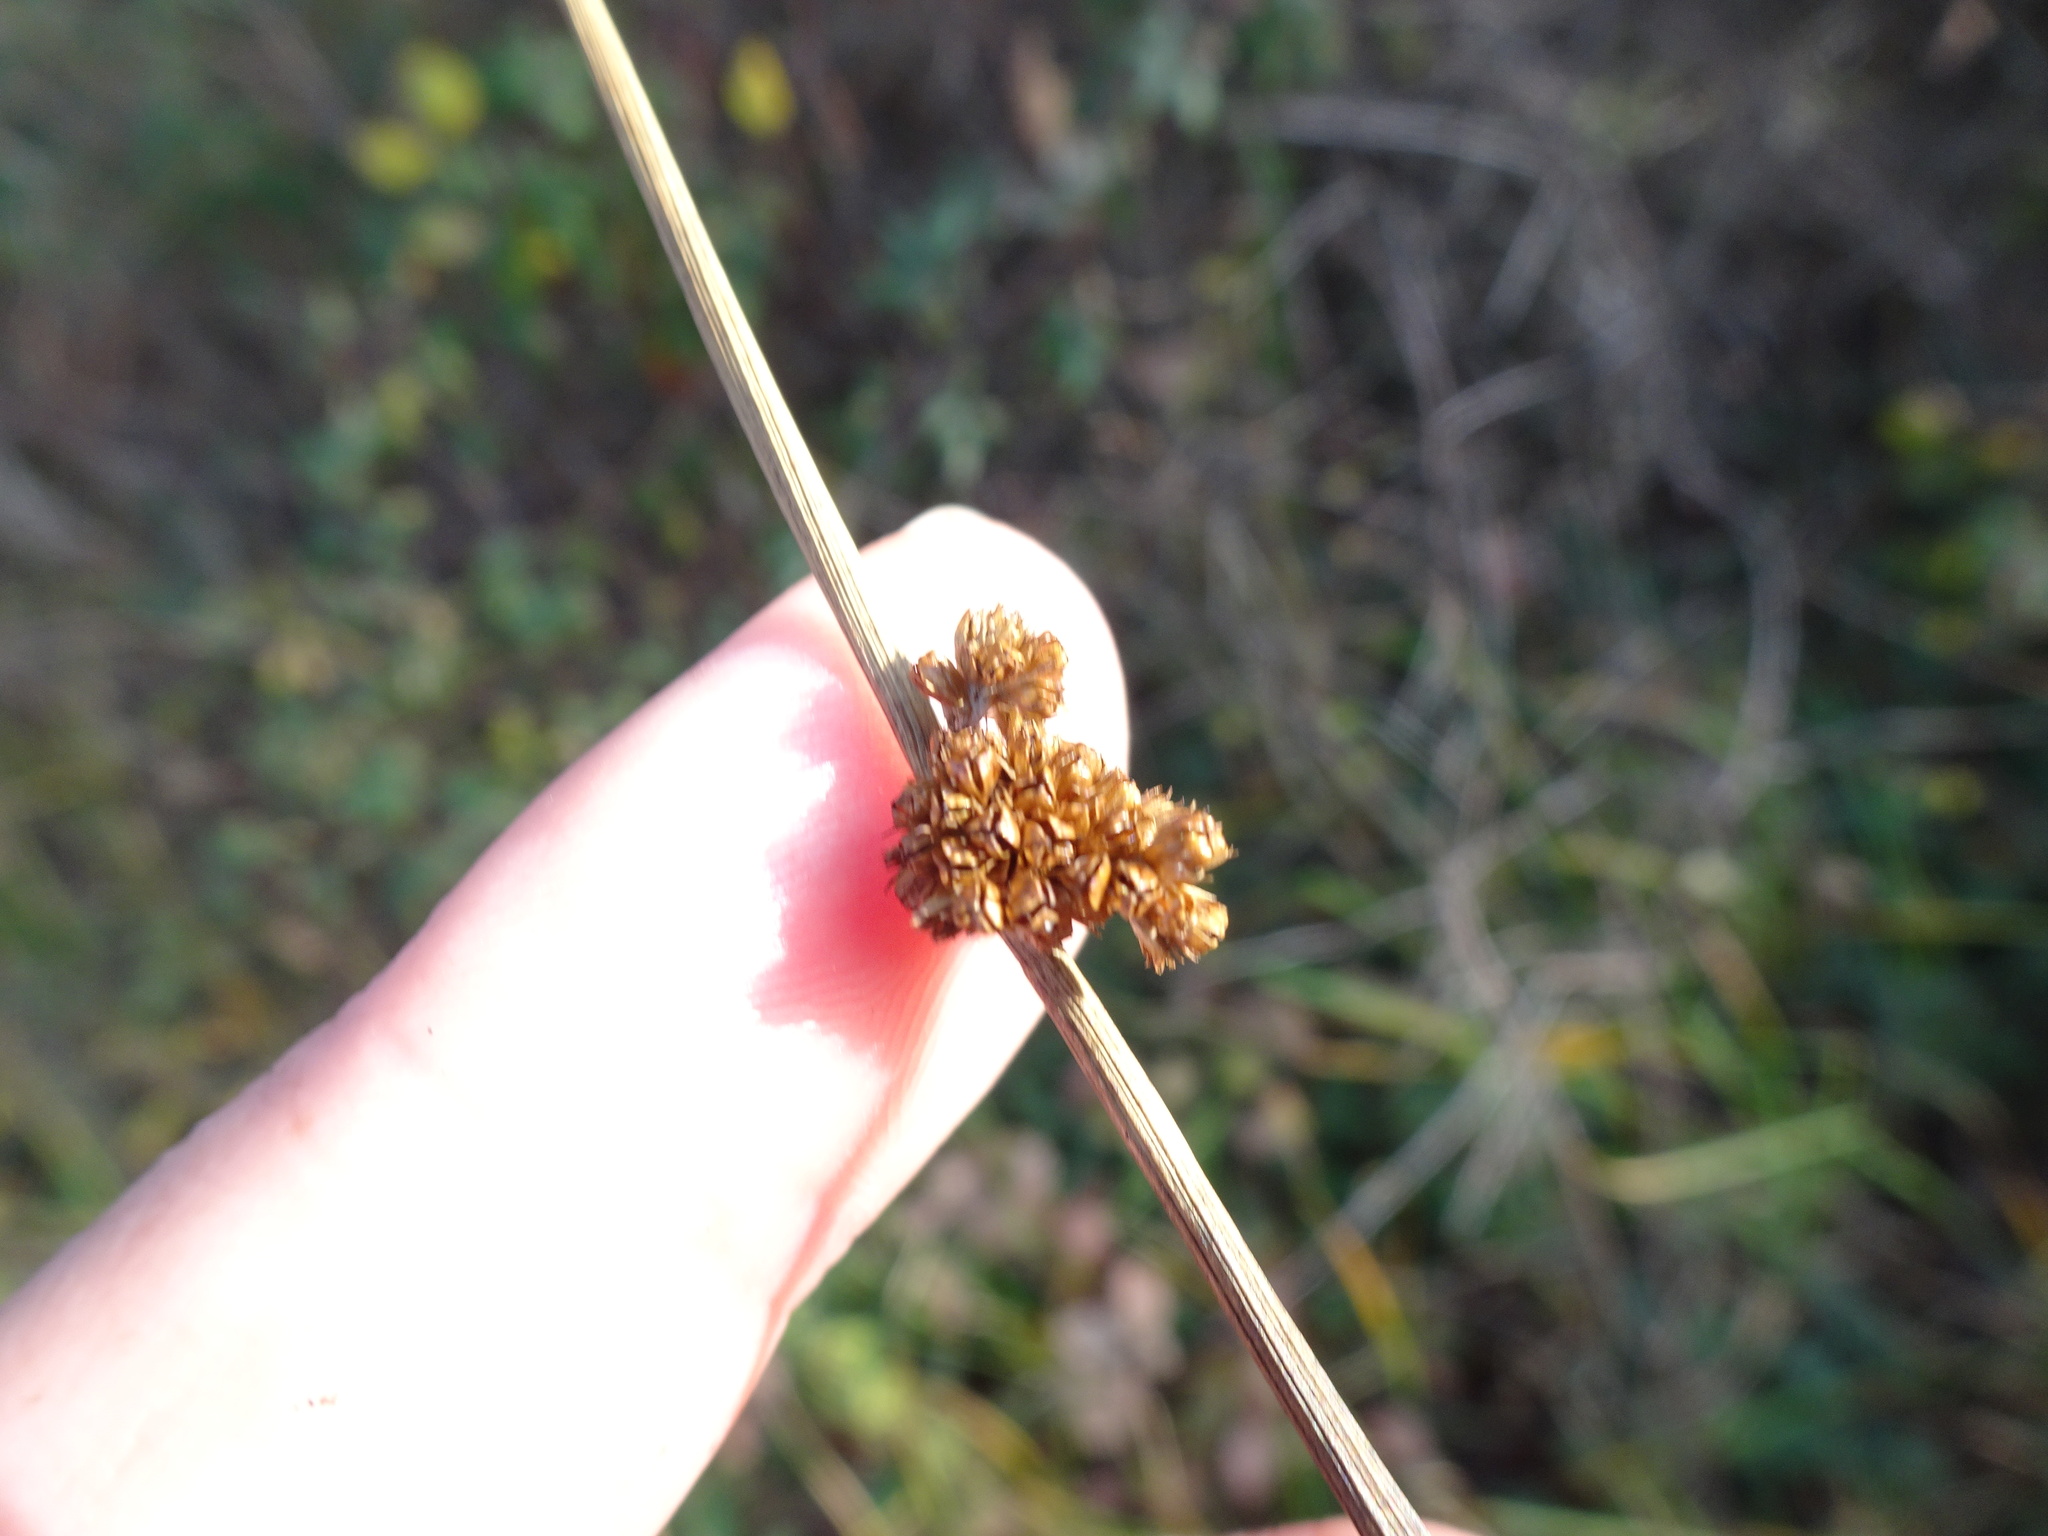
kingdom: Plantae
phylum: Tracheophyta
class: Liliopsida
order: Poales
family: Juncaceae
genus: Juncus
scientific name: Juncus conglomeratus
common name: Compact rush
